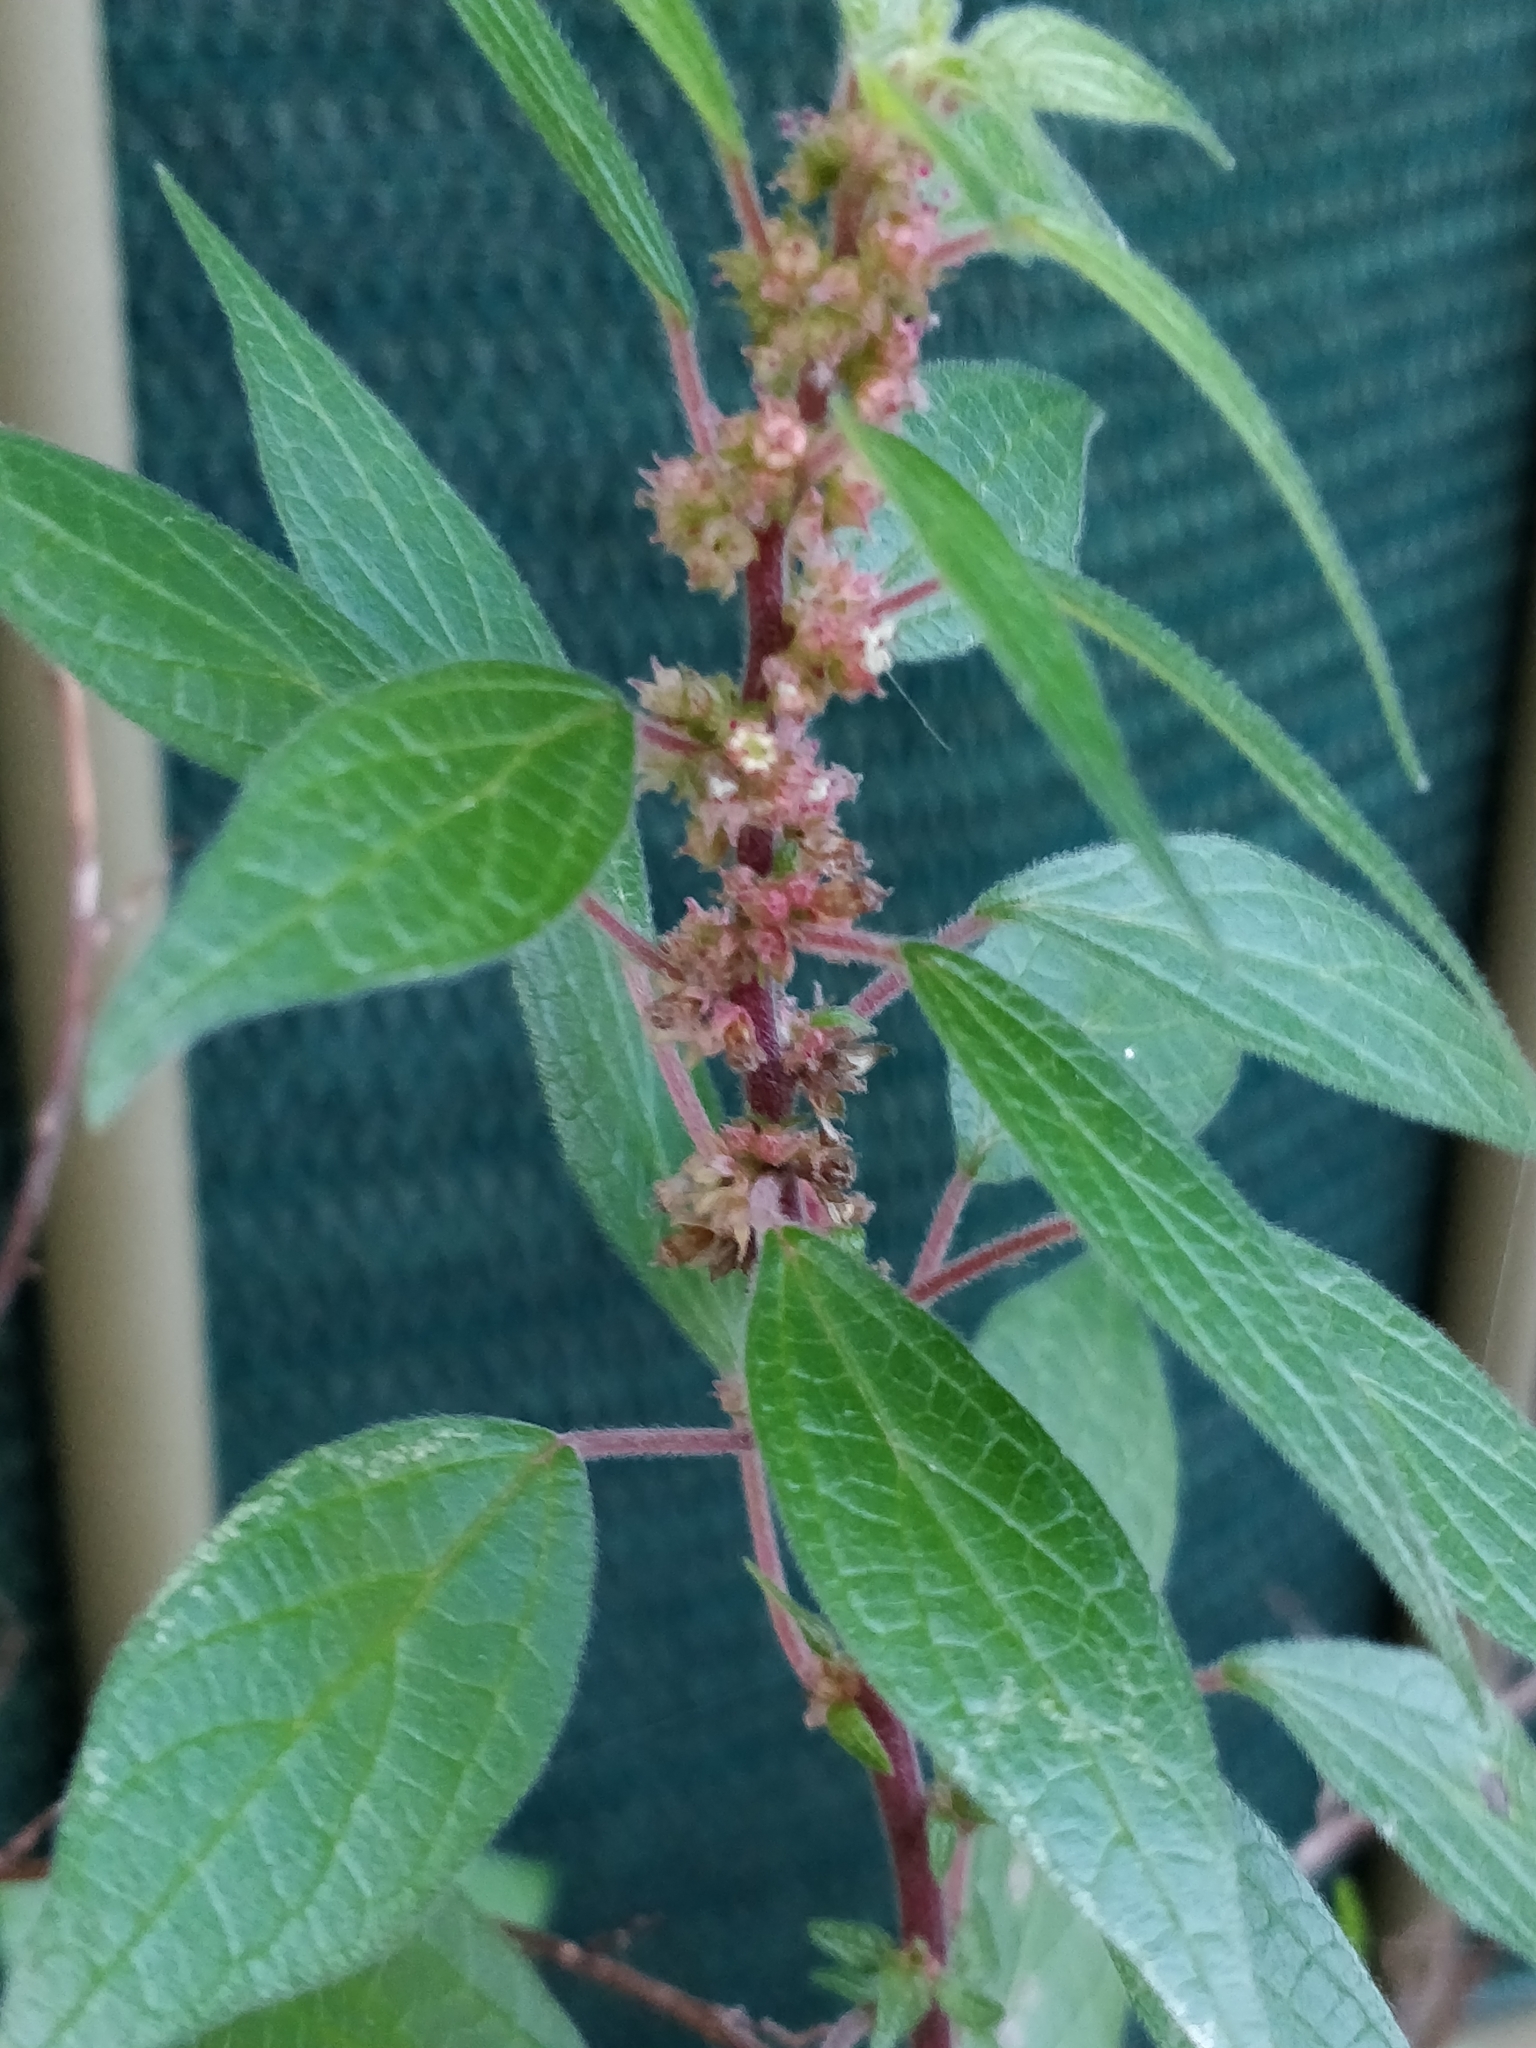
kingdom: Plantae
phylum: Tracheophyta
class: Magnoliopsida
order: Rosales
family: Urticaceae
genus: Parietaria
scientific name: Parietaria judaica
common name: Pellitory-of-the-wall
